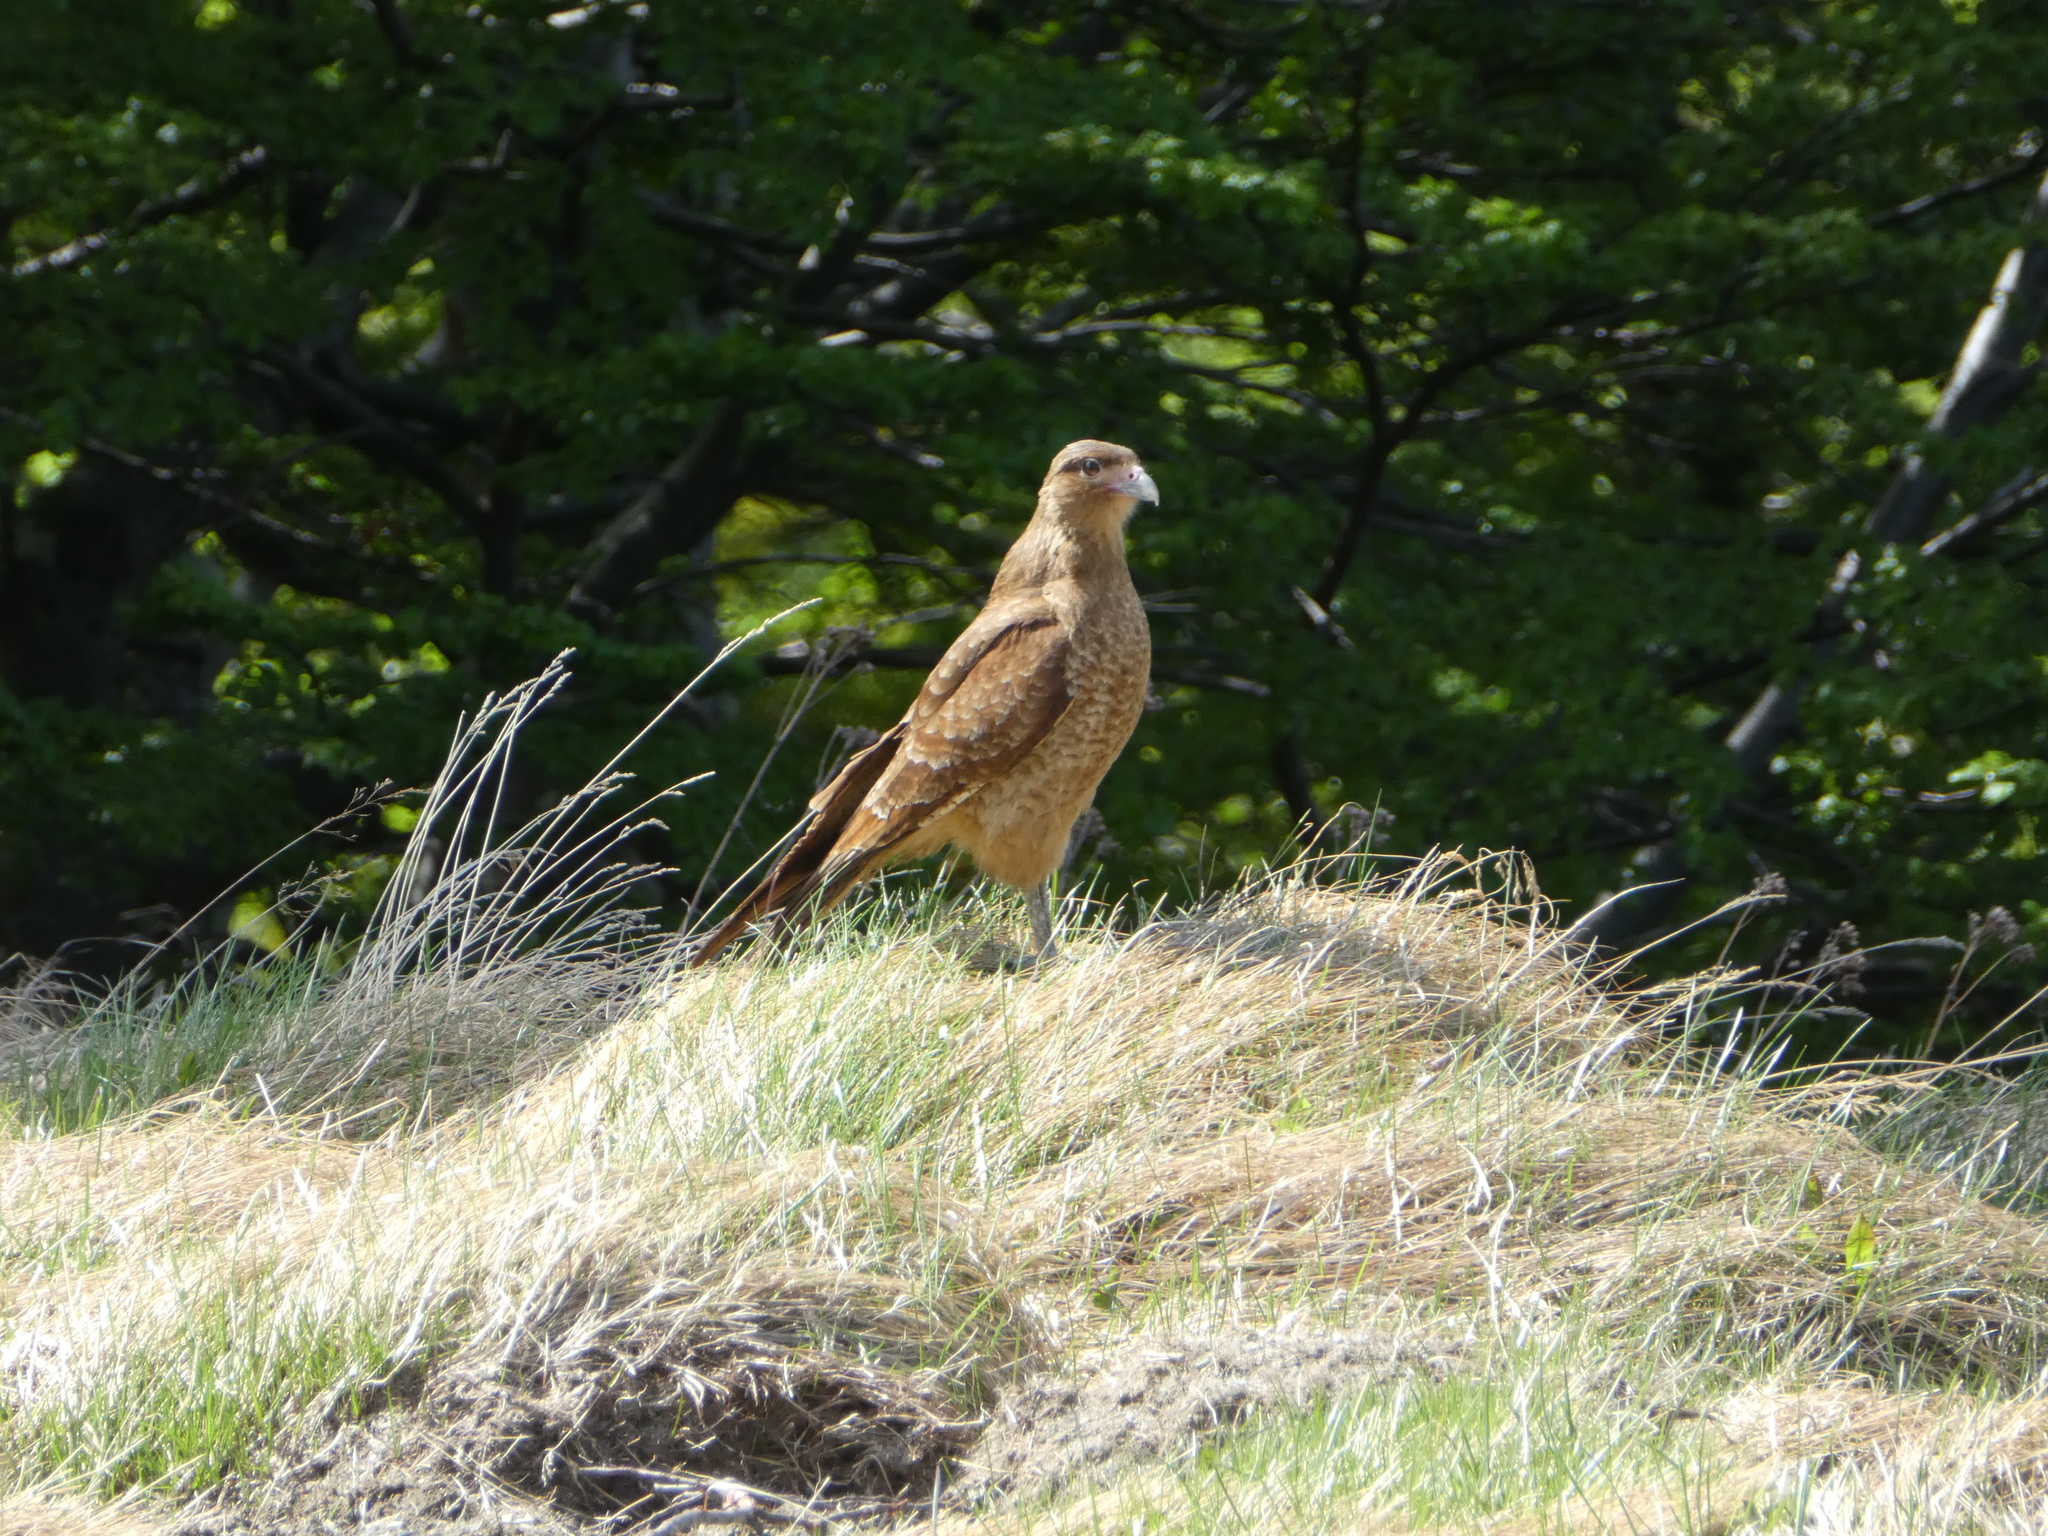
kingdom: Animalia
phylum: Chordata
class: Aves
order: Falconiformes
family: Falconidae
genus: Daptrius
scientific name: Daptrius
